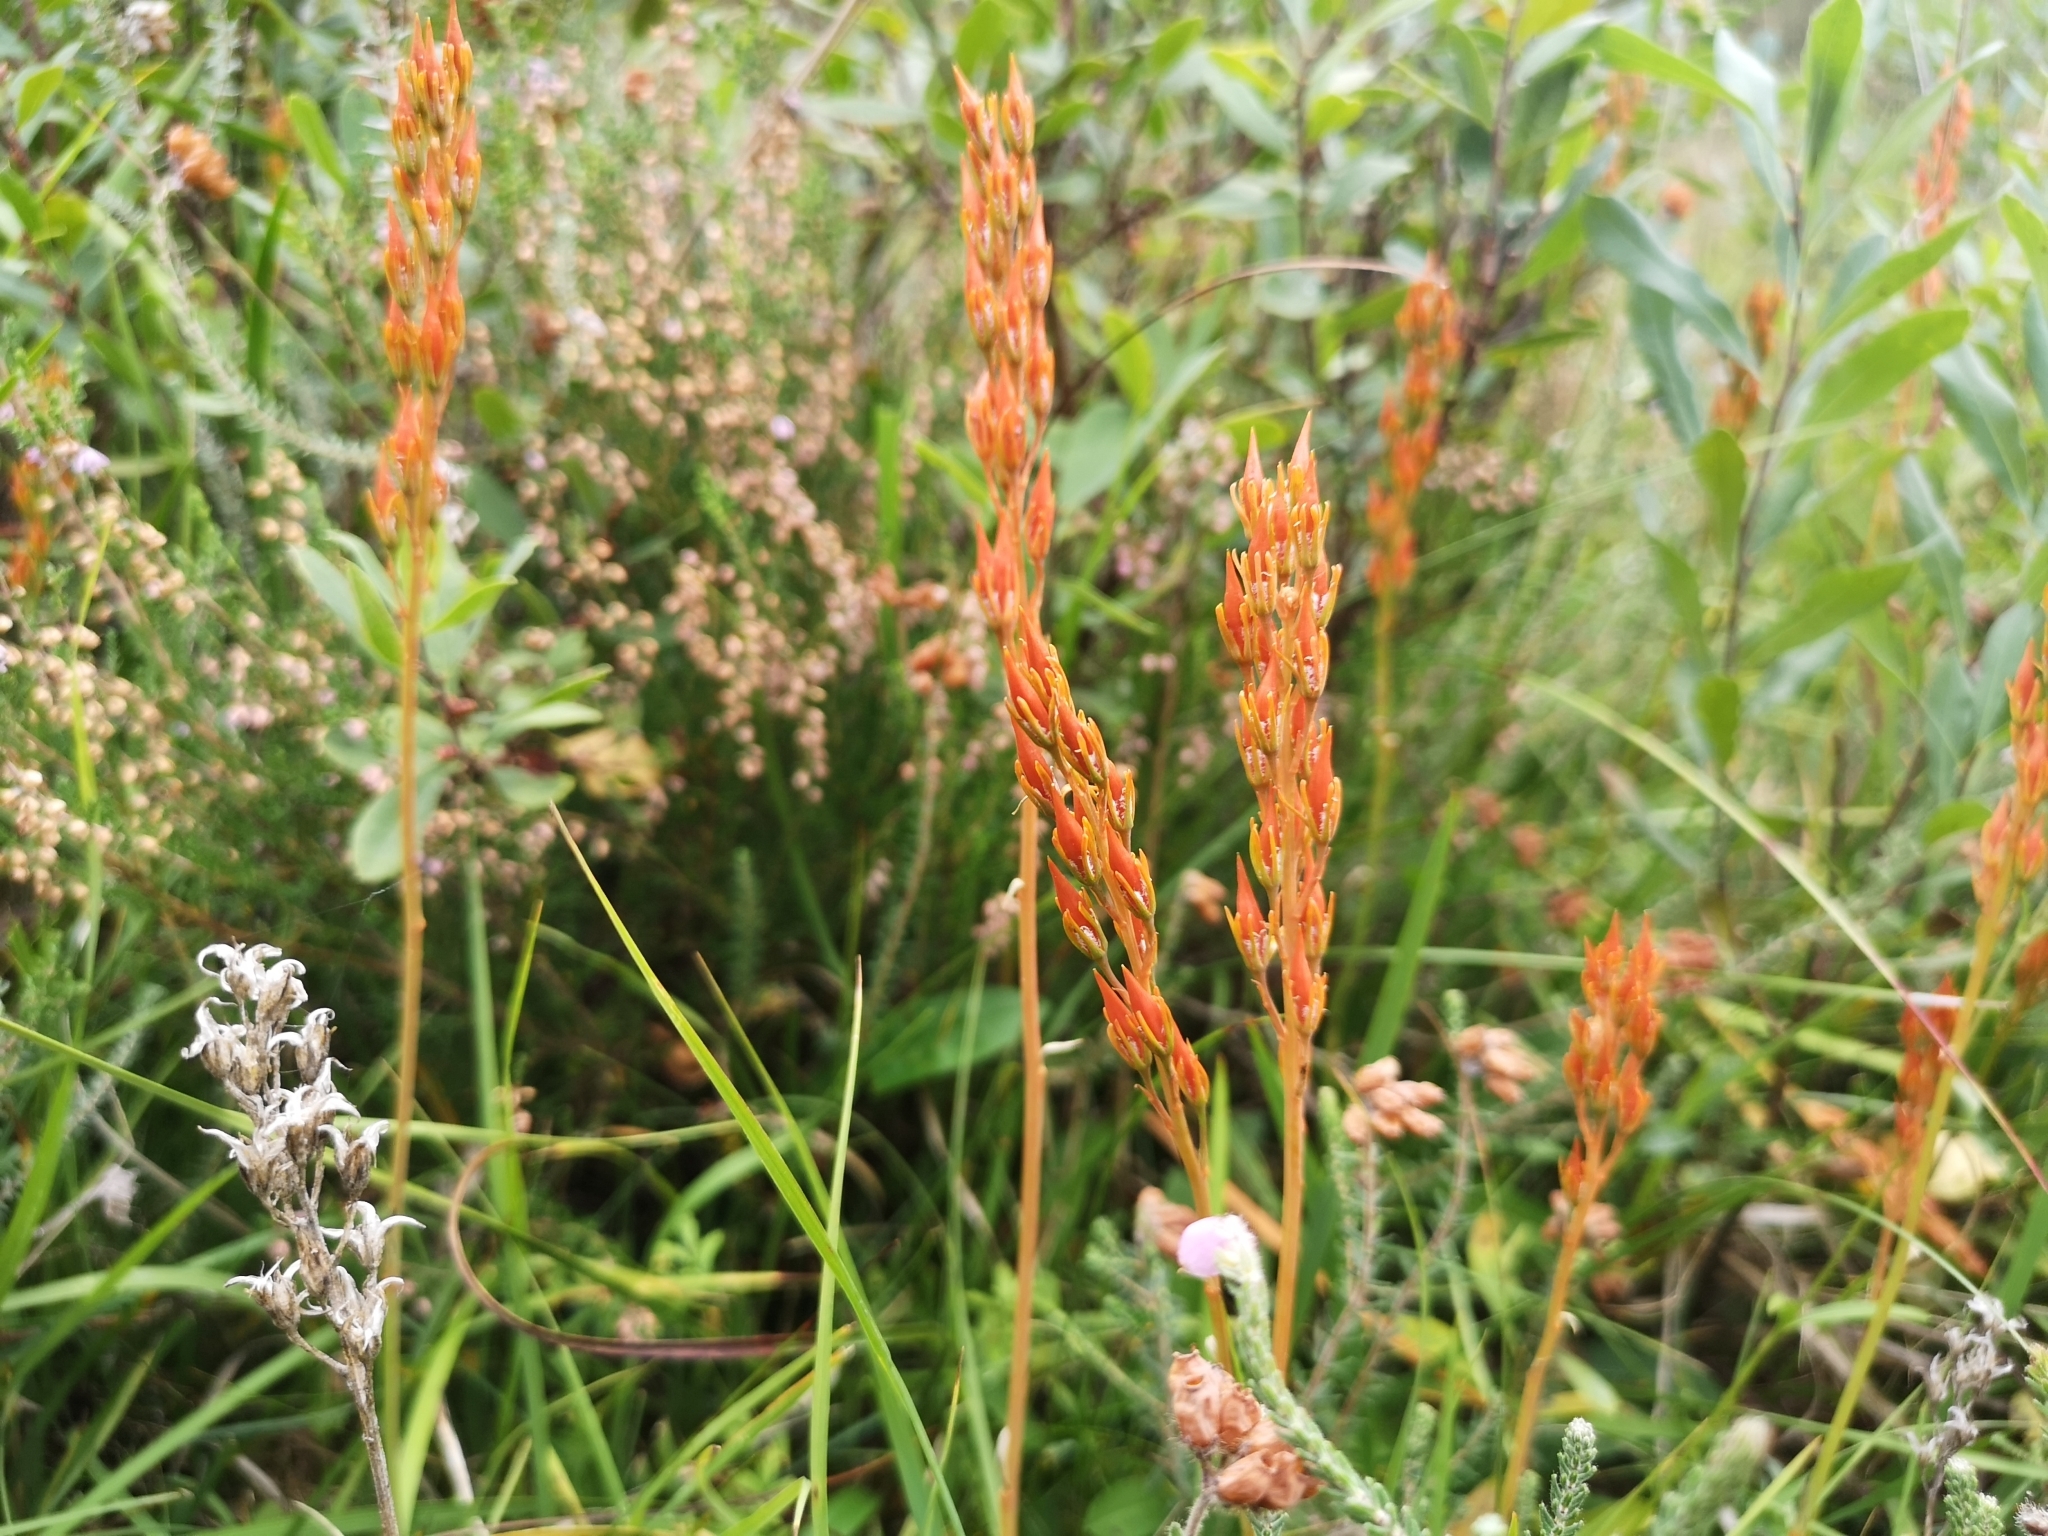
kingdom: Plantae
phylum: Tracheophyta
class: Liliopsida
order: Dioscoreales
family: Nartheciaceae
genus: Narthecium
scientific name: Narthecium ossifragum
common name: Bog asphodel
